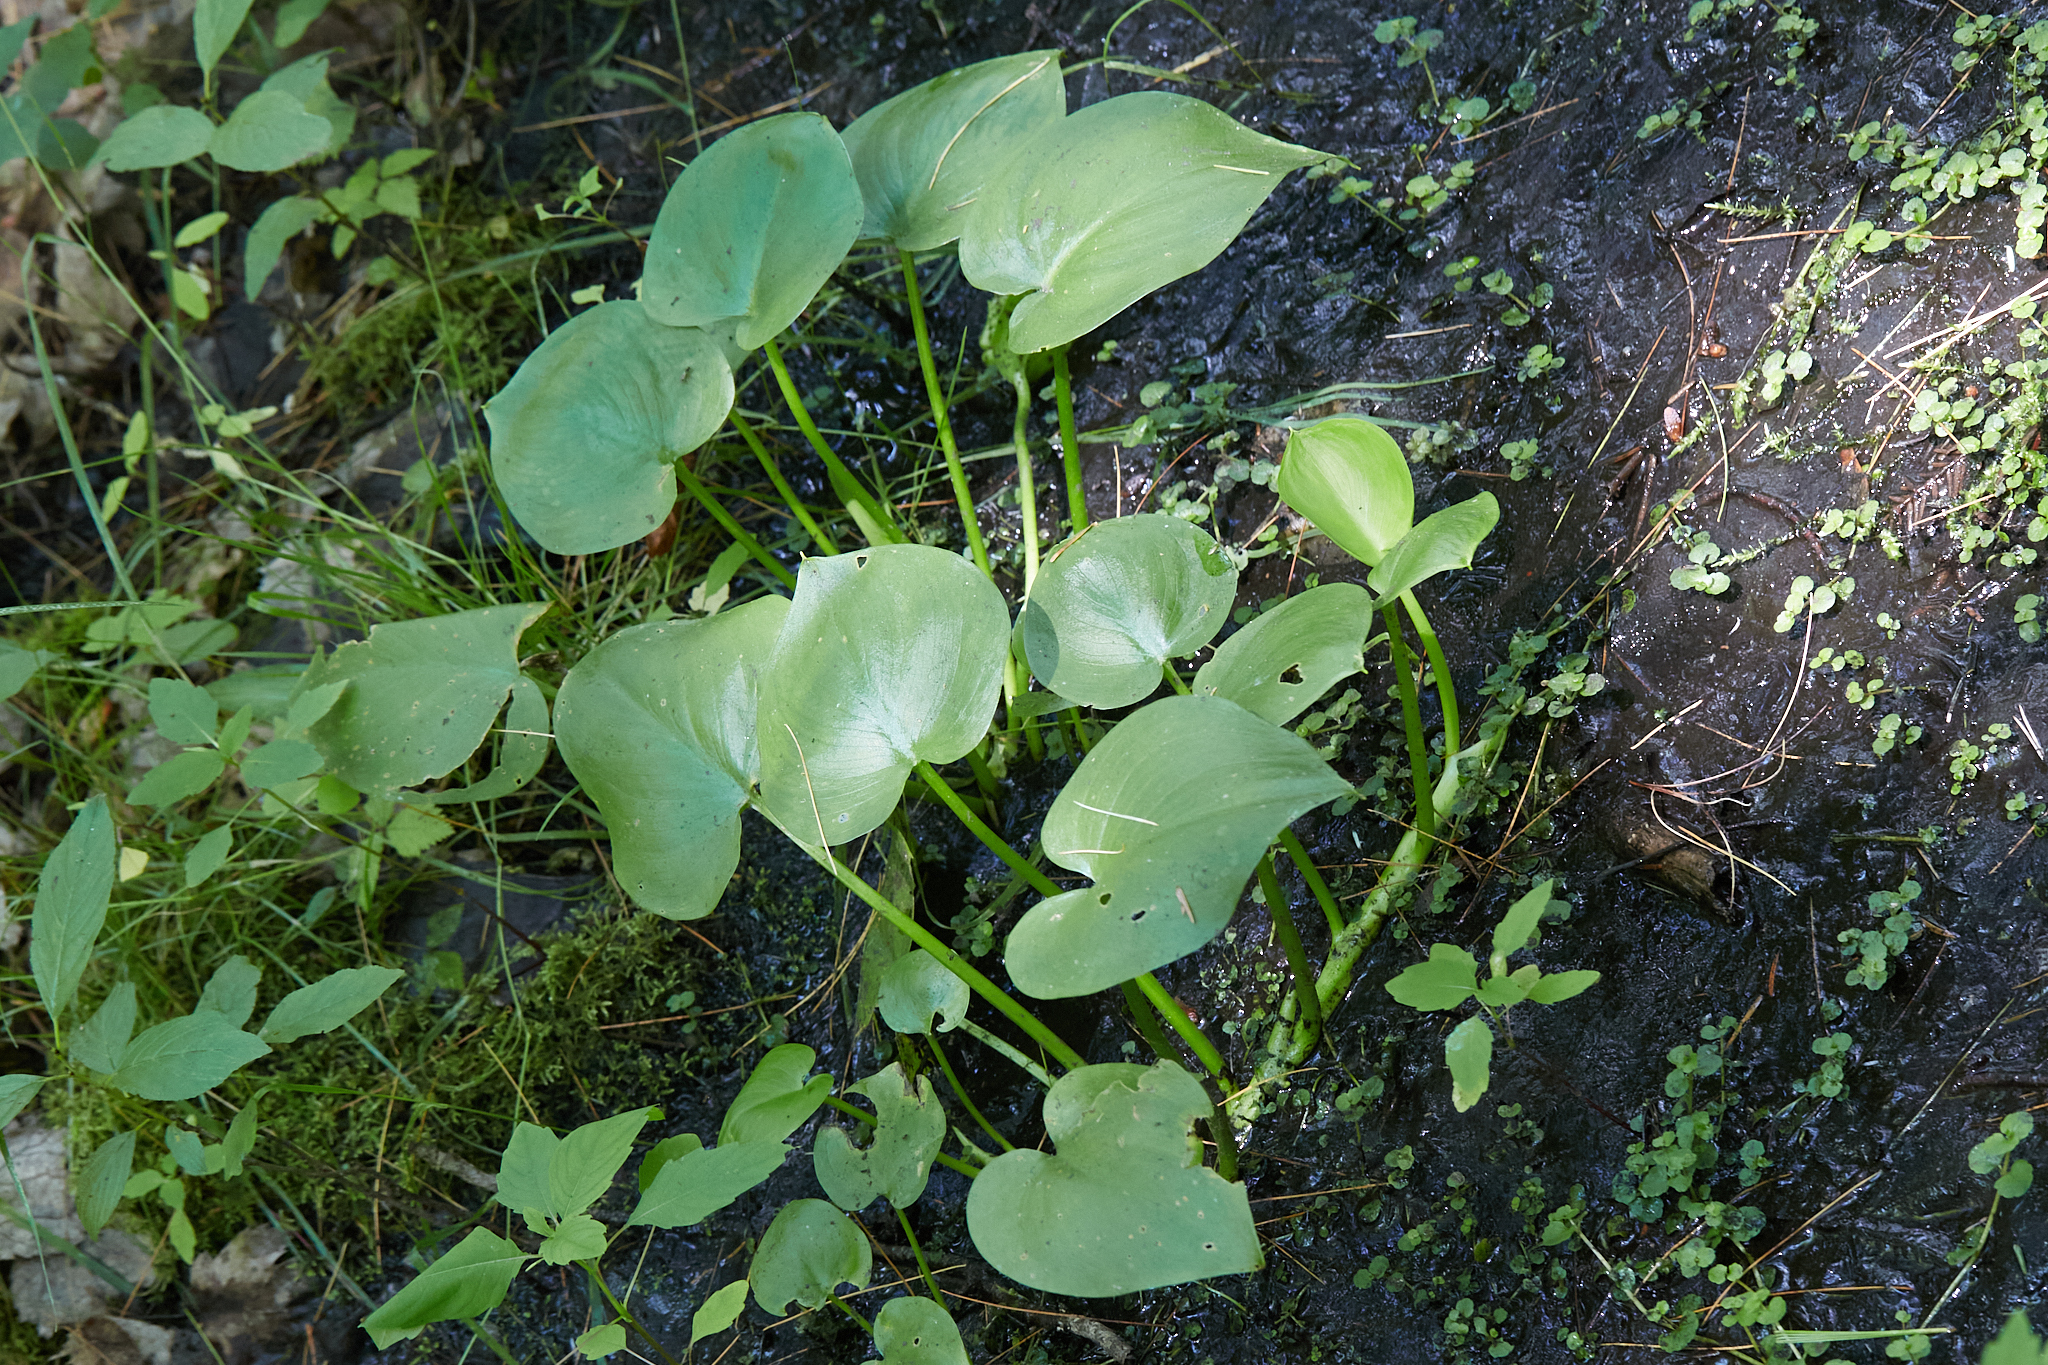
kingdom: Plantae
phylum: Tracheophyta
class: Liliopsida
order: Alismatales
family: Araceae
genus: Calla
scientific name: Calla palustris
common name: Bog arum
